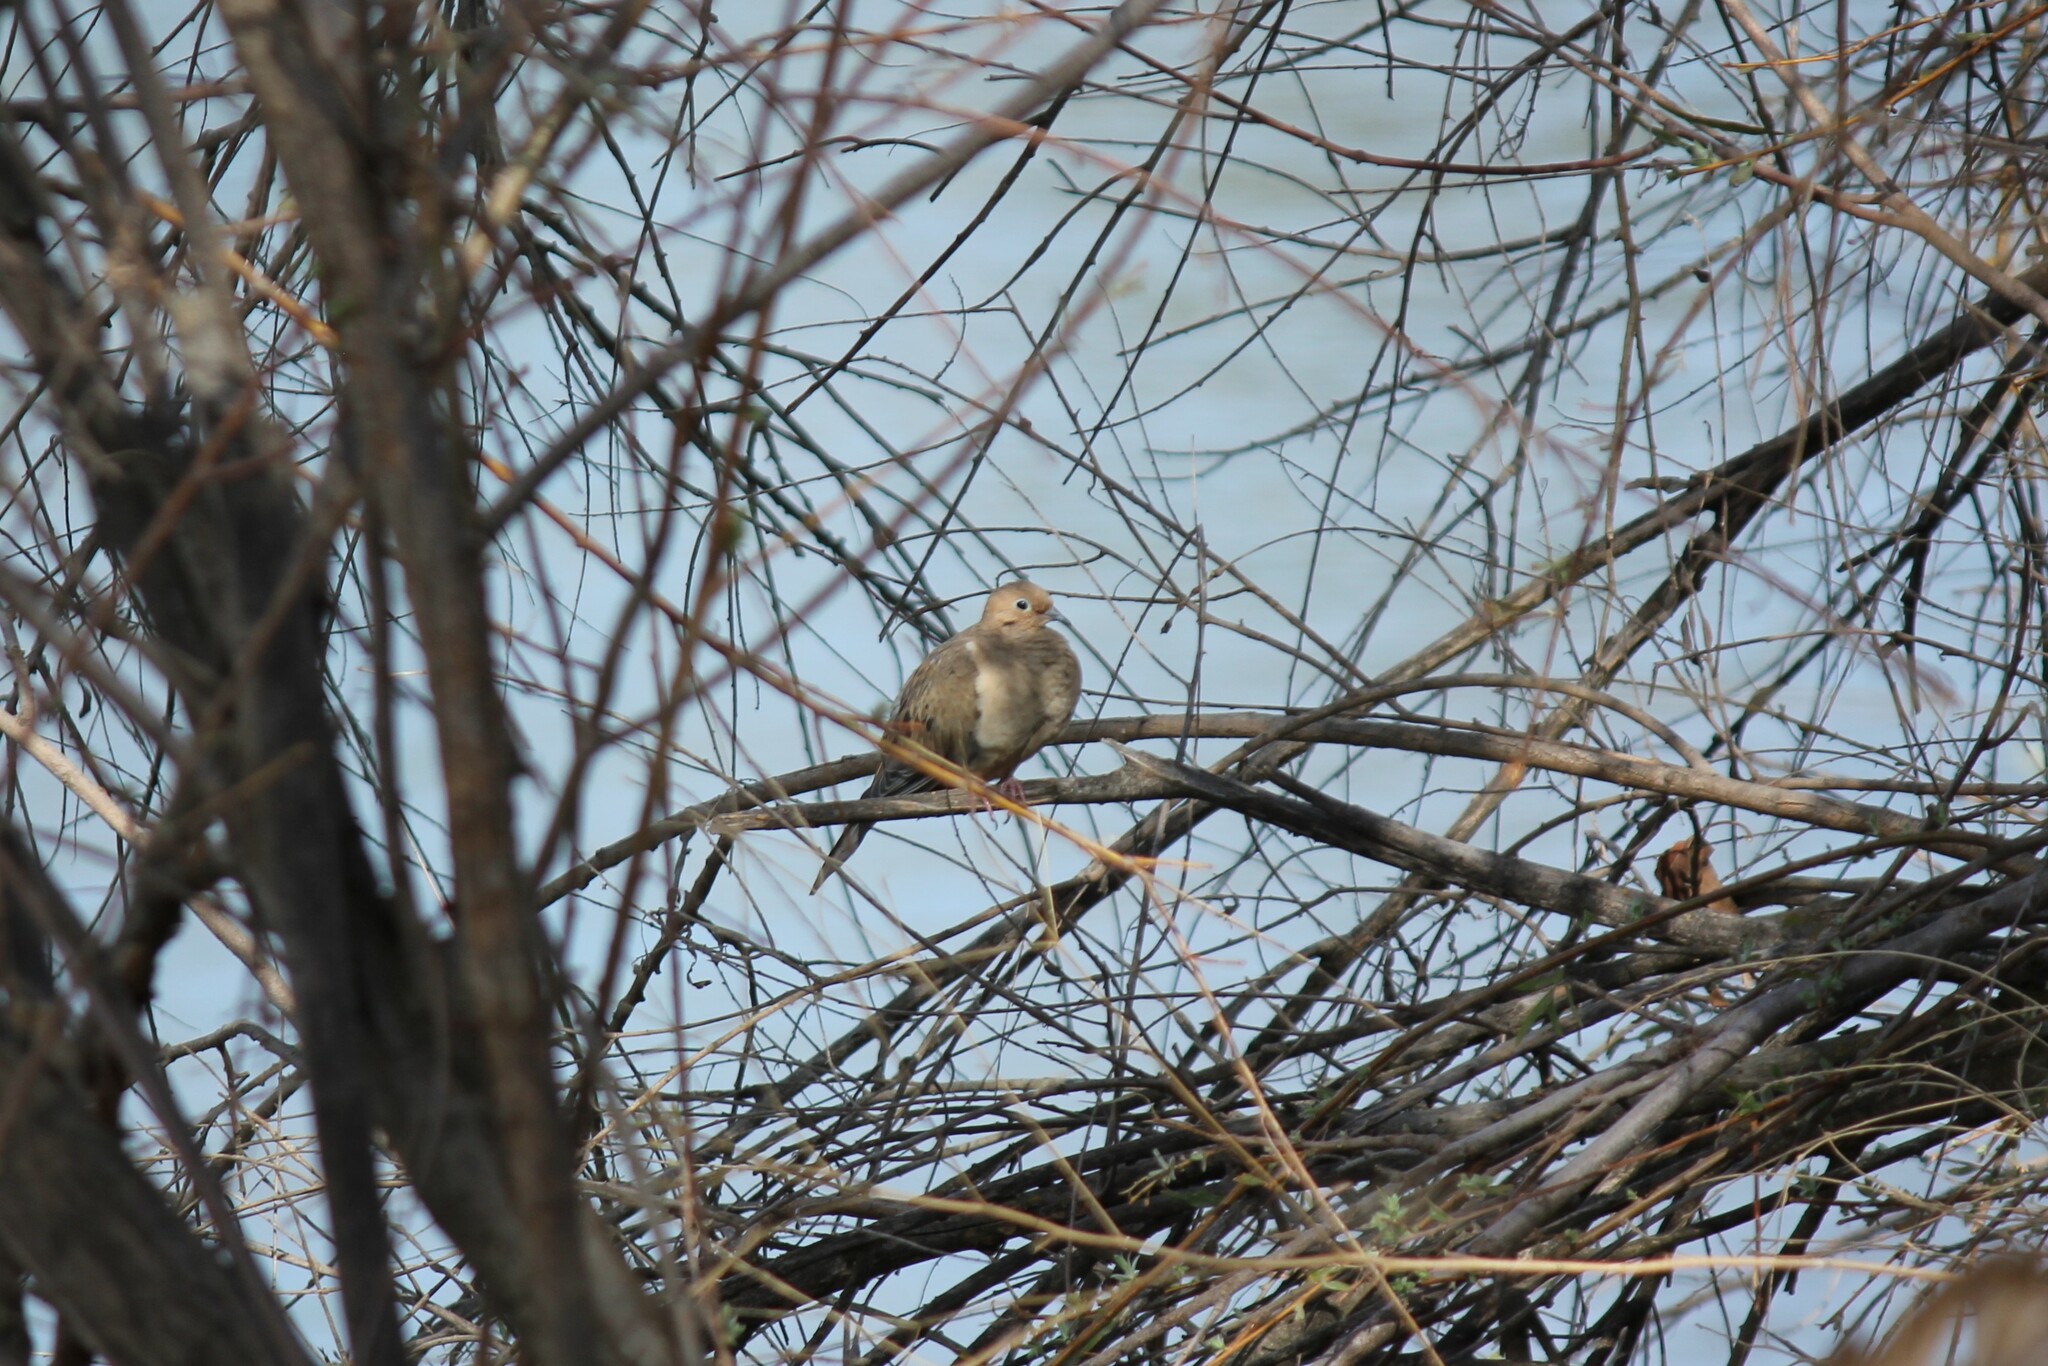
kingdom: Animalia
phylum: Chordata
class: Aves
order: Columbiformes
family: Columbidae
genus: Zenaida
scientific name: Zenaida macroura
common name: Mourning dove
